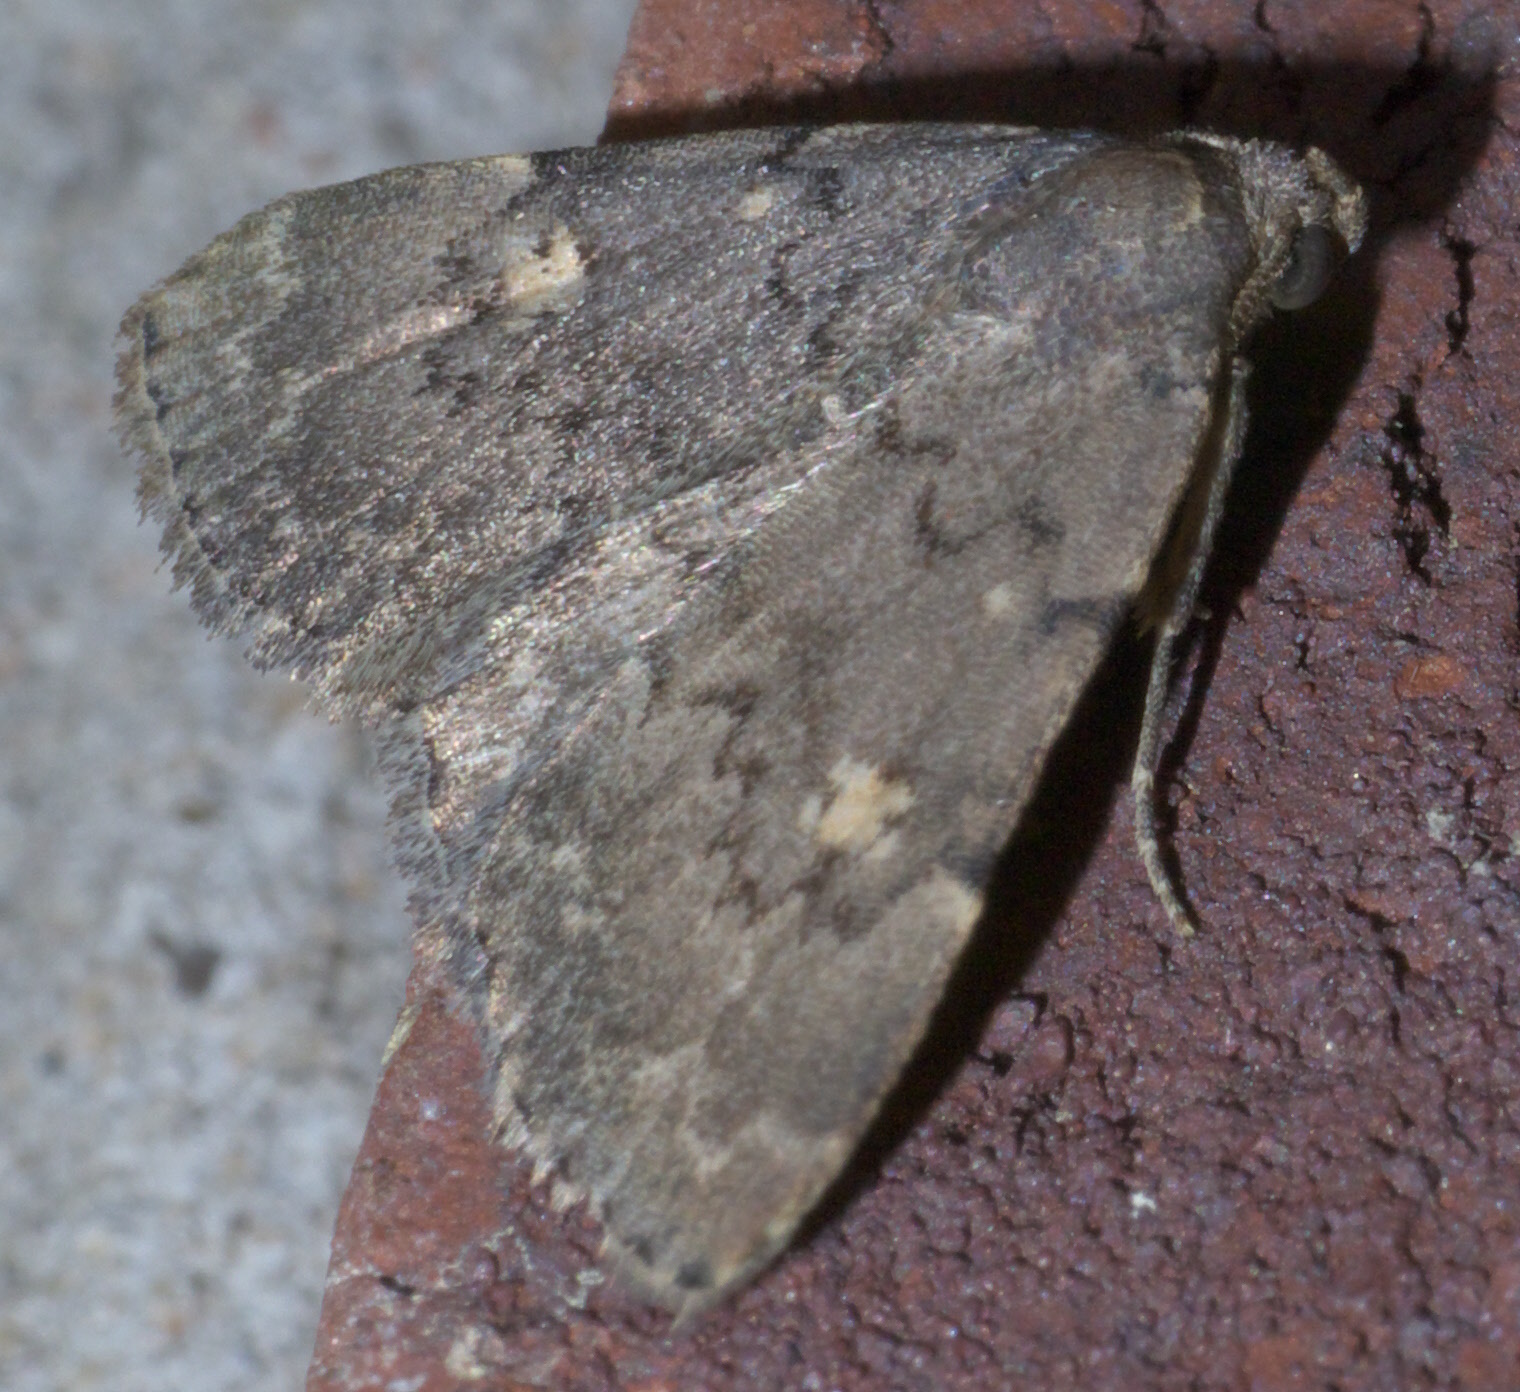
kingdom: Animalia
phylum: Arthropoda
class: Insecta
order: Lepidoptera
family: Erebidae
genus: Idia
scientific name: Idia aemula
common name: Common idia moth
